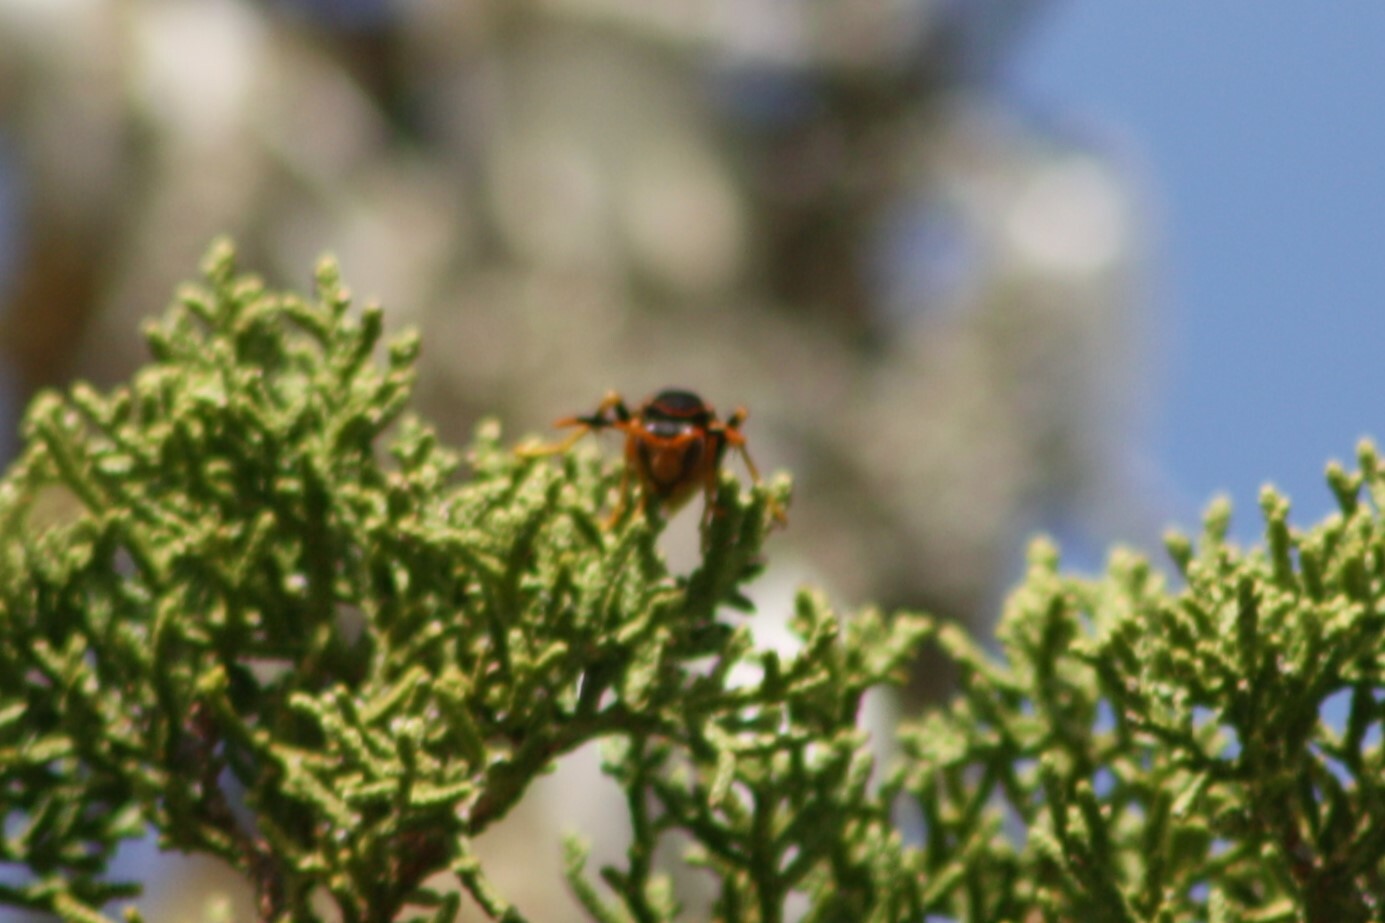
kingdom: Animalia
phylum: Arthropoda
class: Insecta
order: Hymenoptera
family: Eumenidae
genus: Polistes
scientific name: Polistes comanchus
